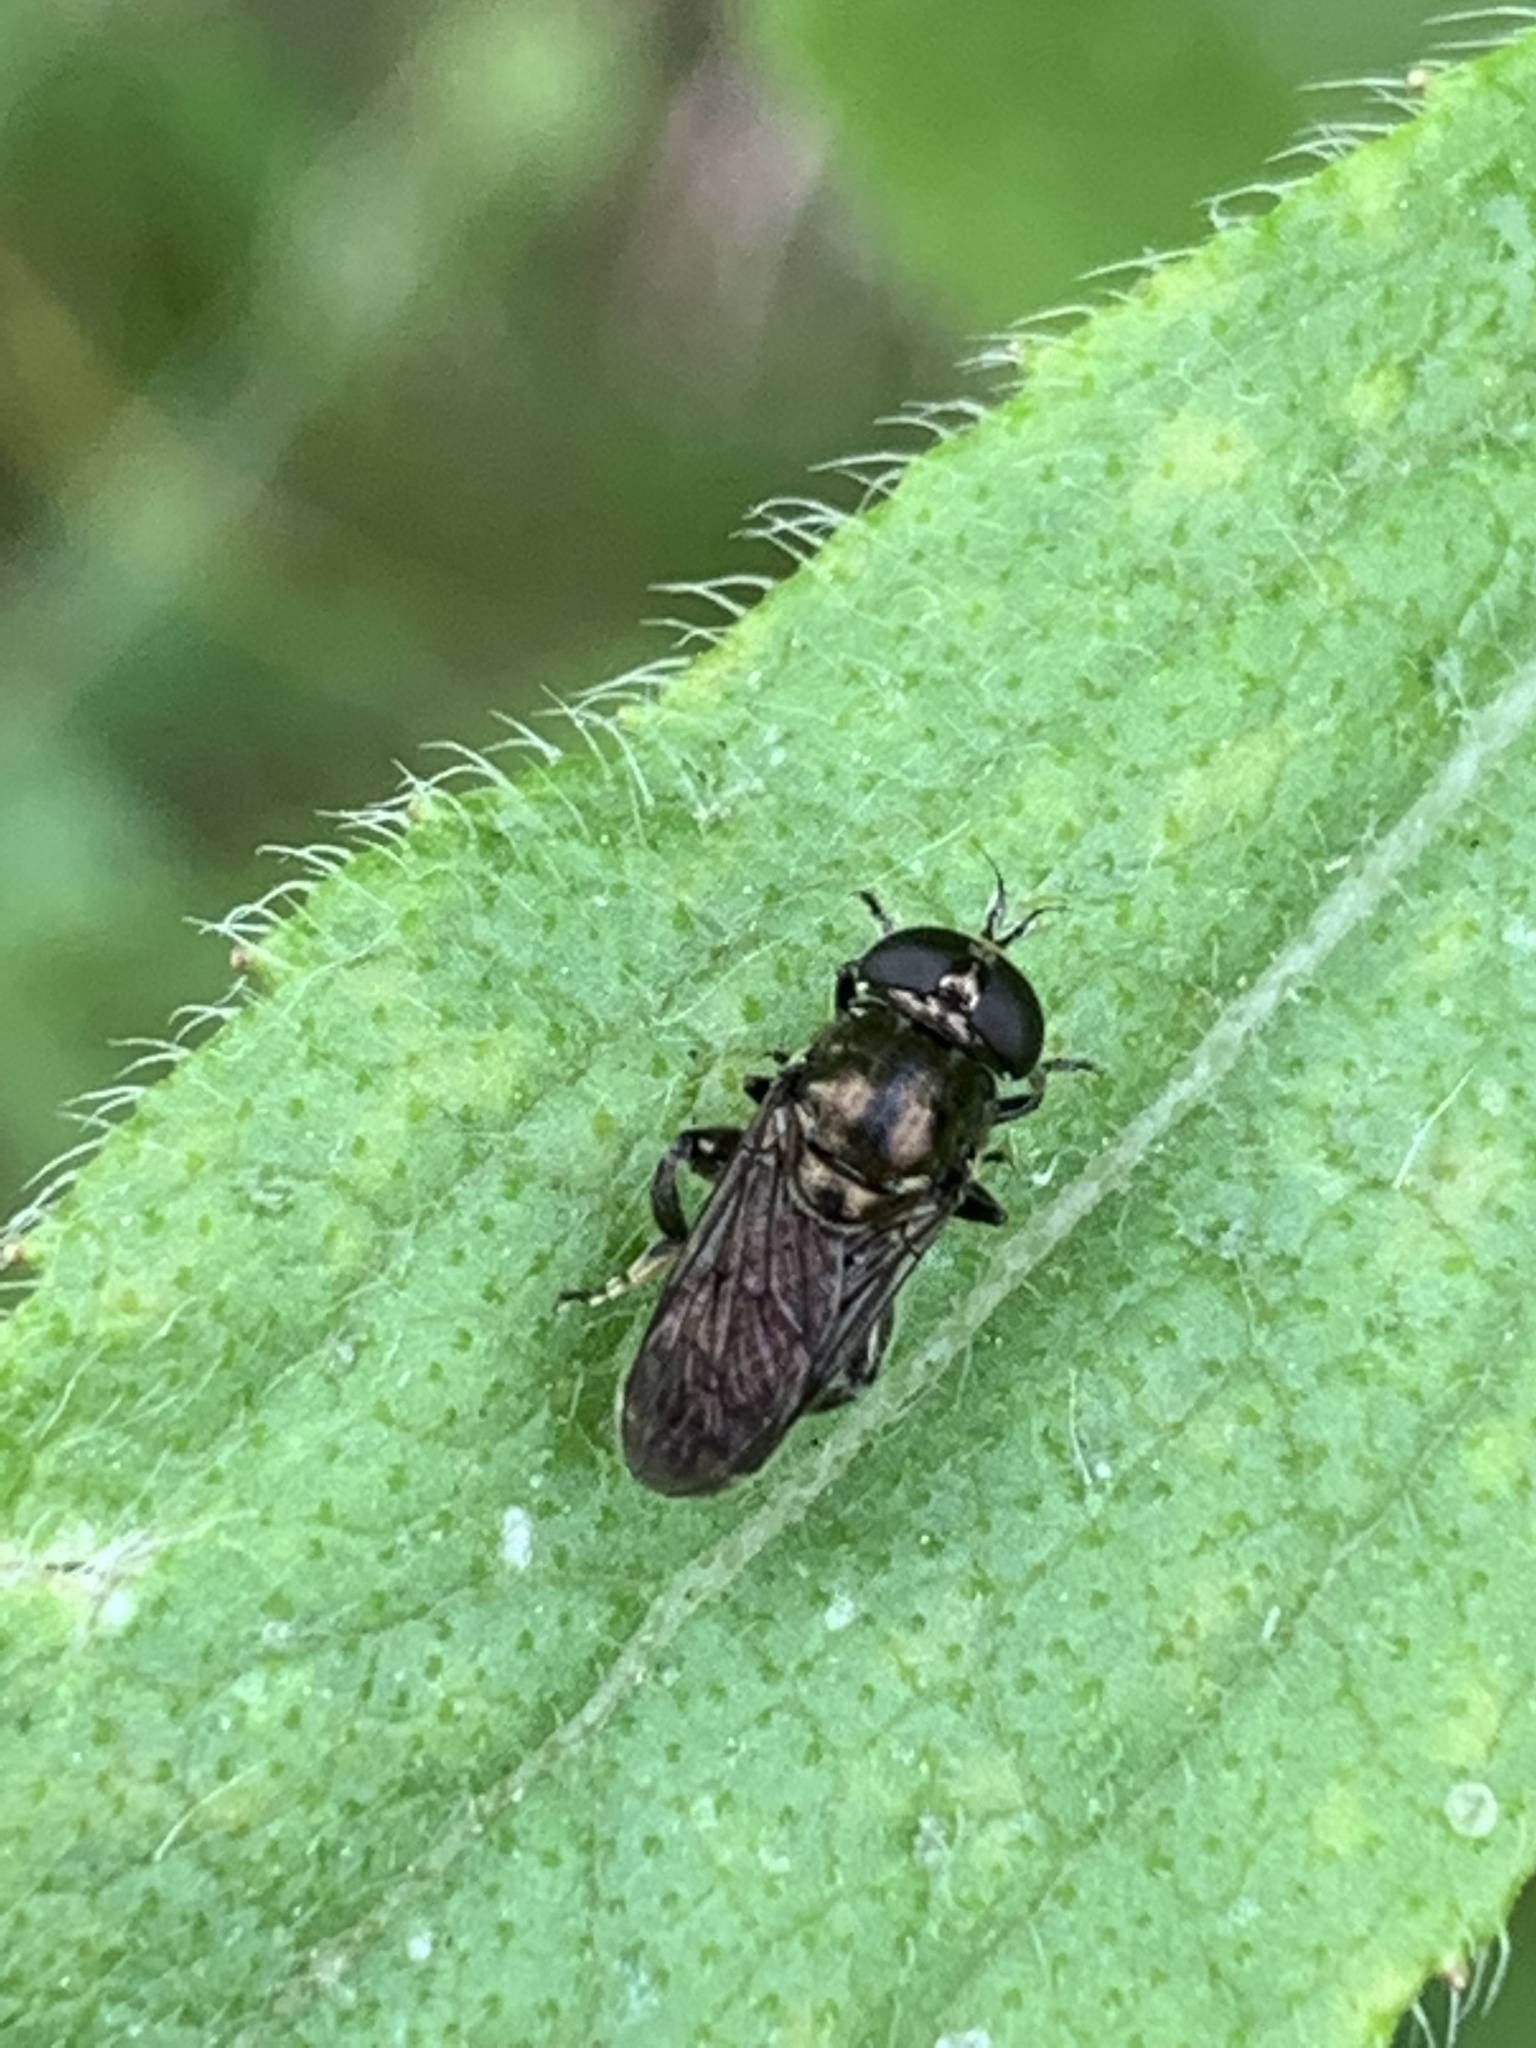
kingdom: Animalia
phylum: Arthropoda
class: Insecta
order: Diptera
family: Syrphidae
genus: Eumerus
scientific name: Eumerus
